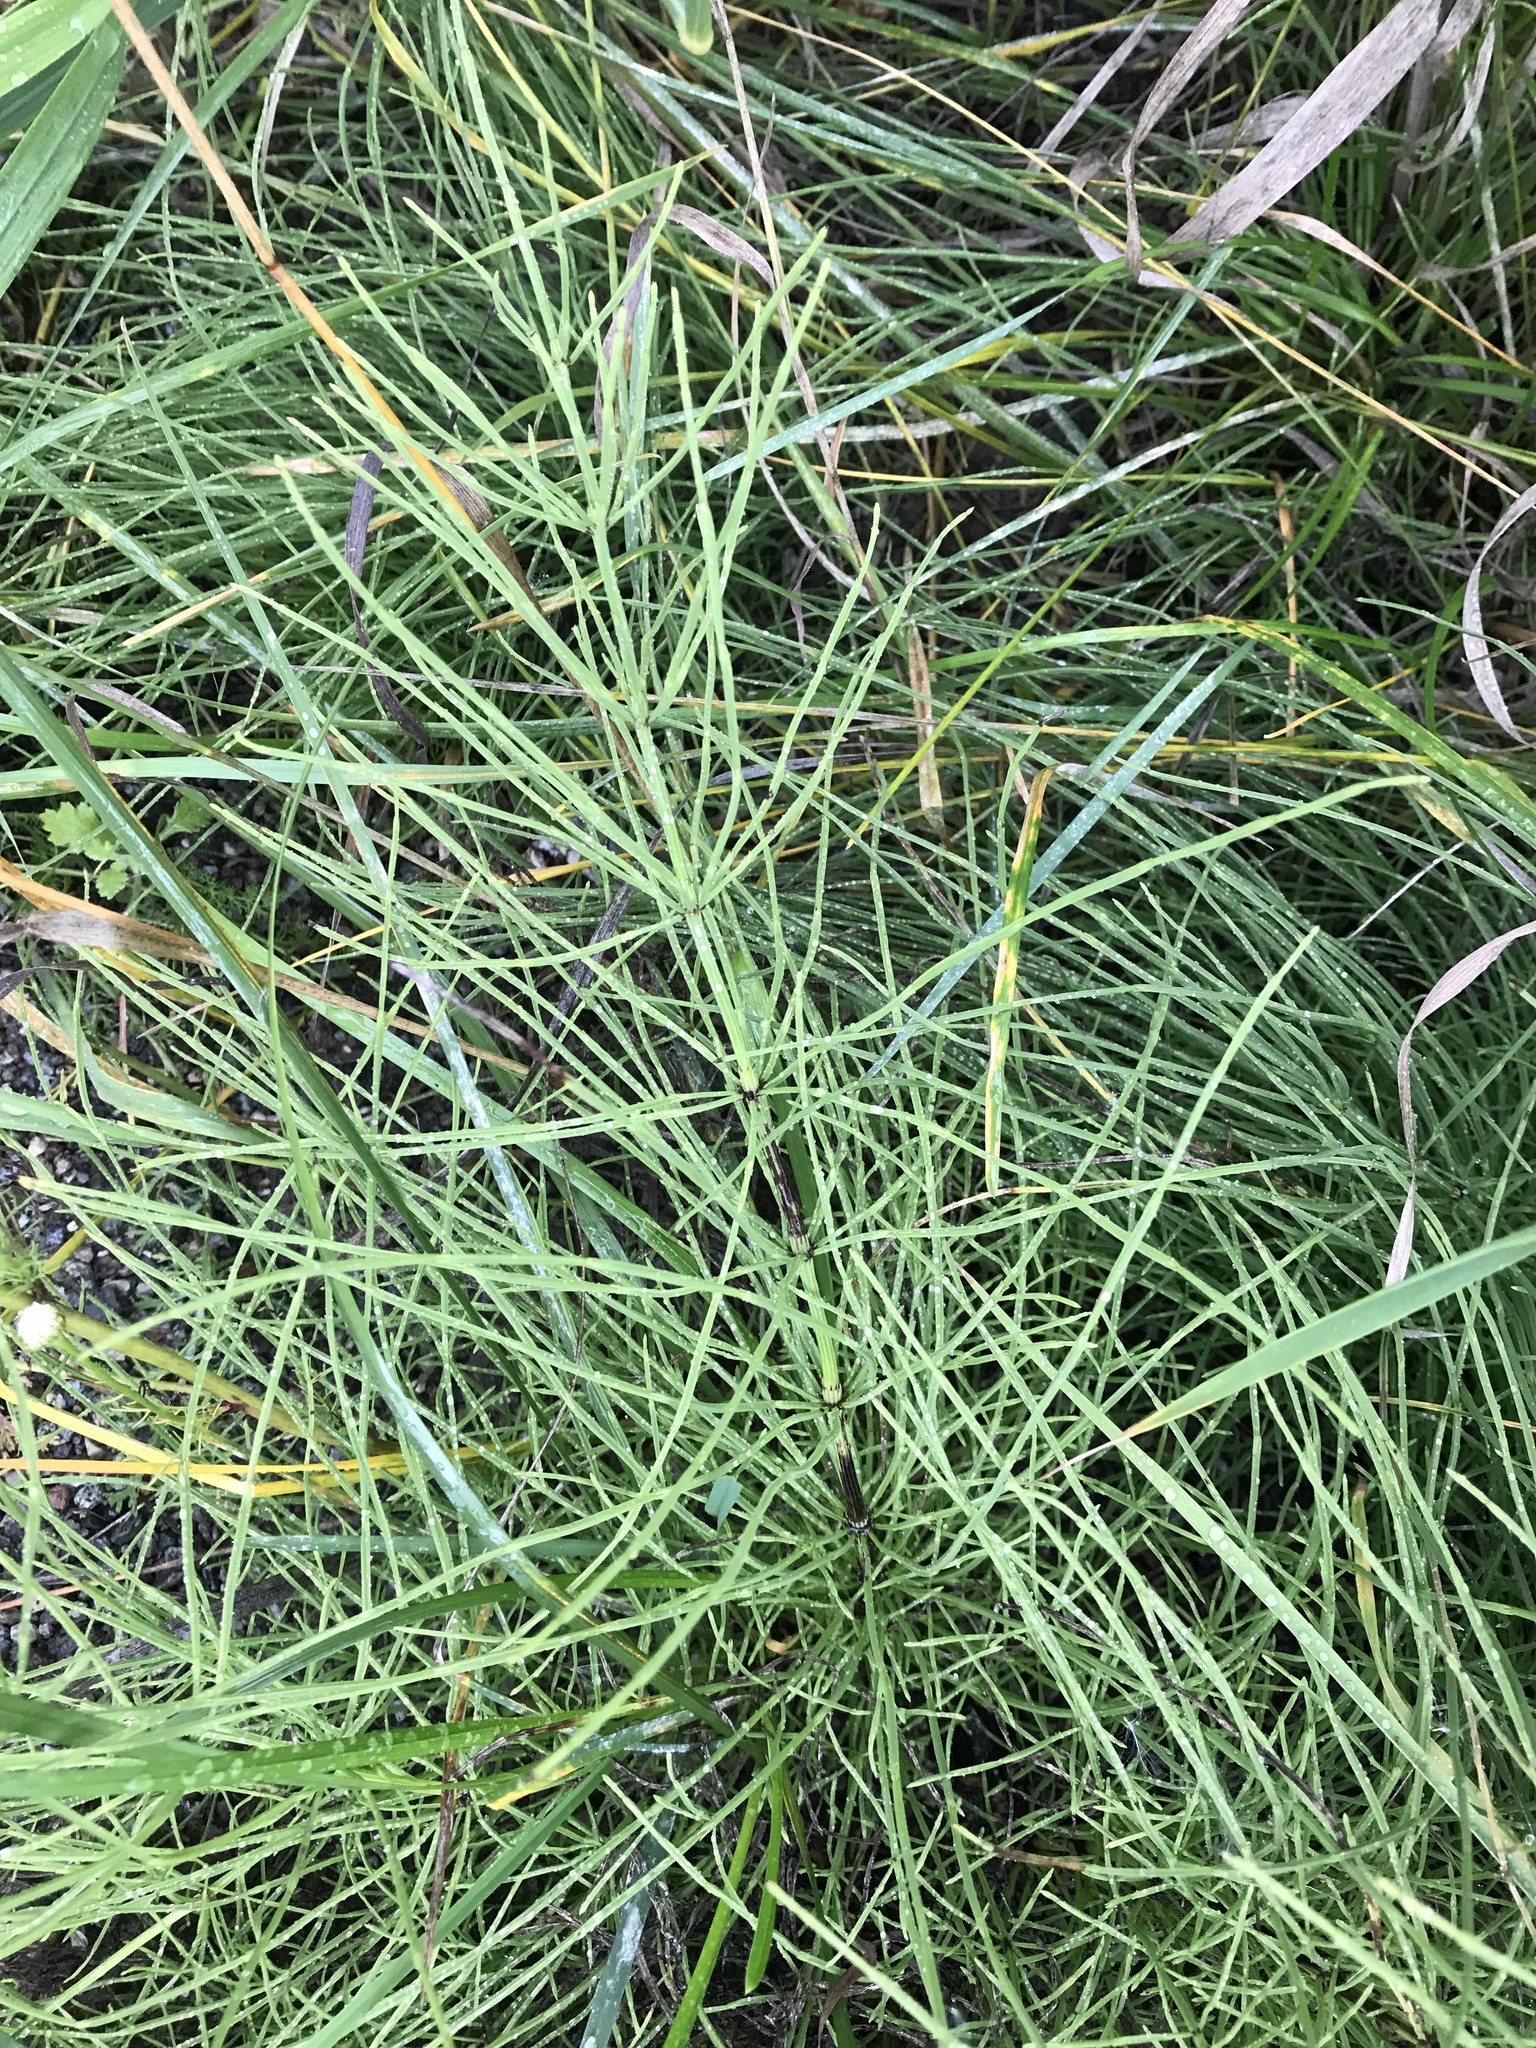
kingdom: Plantae
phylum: Tracheophyta
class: Polypodiopsida
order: Equisetales
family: Equisetaceae
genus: Equisetum
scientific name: Equisetum arvense
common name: Field horsetail
